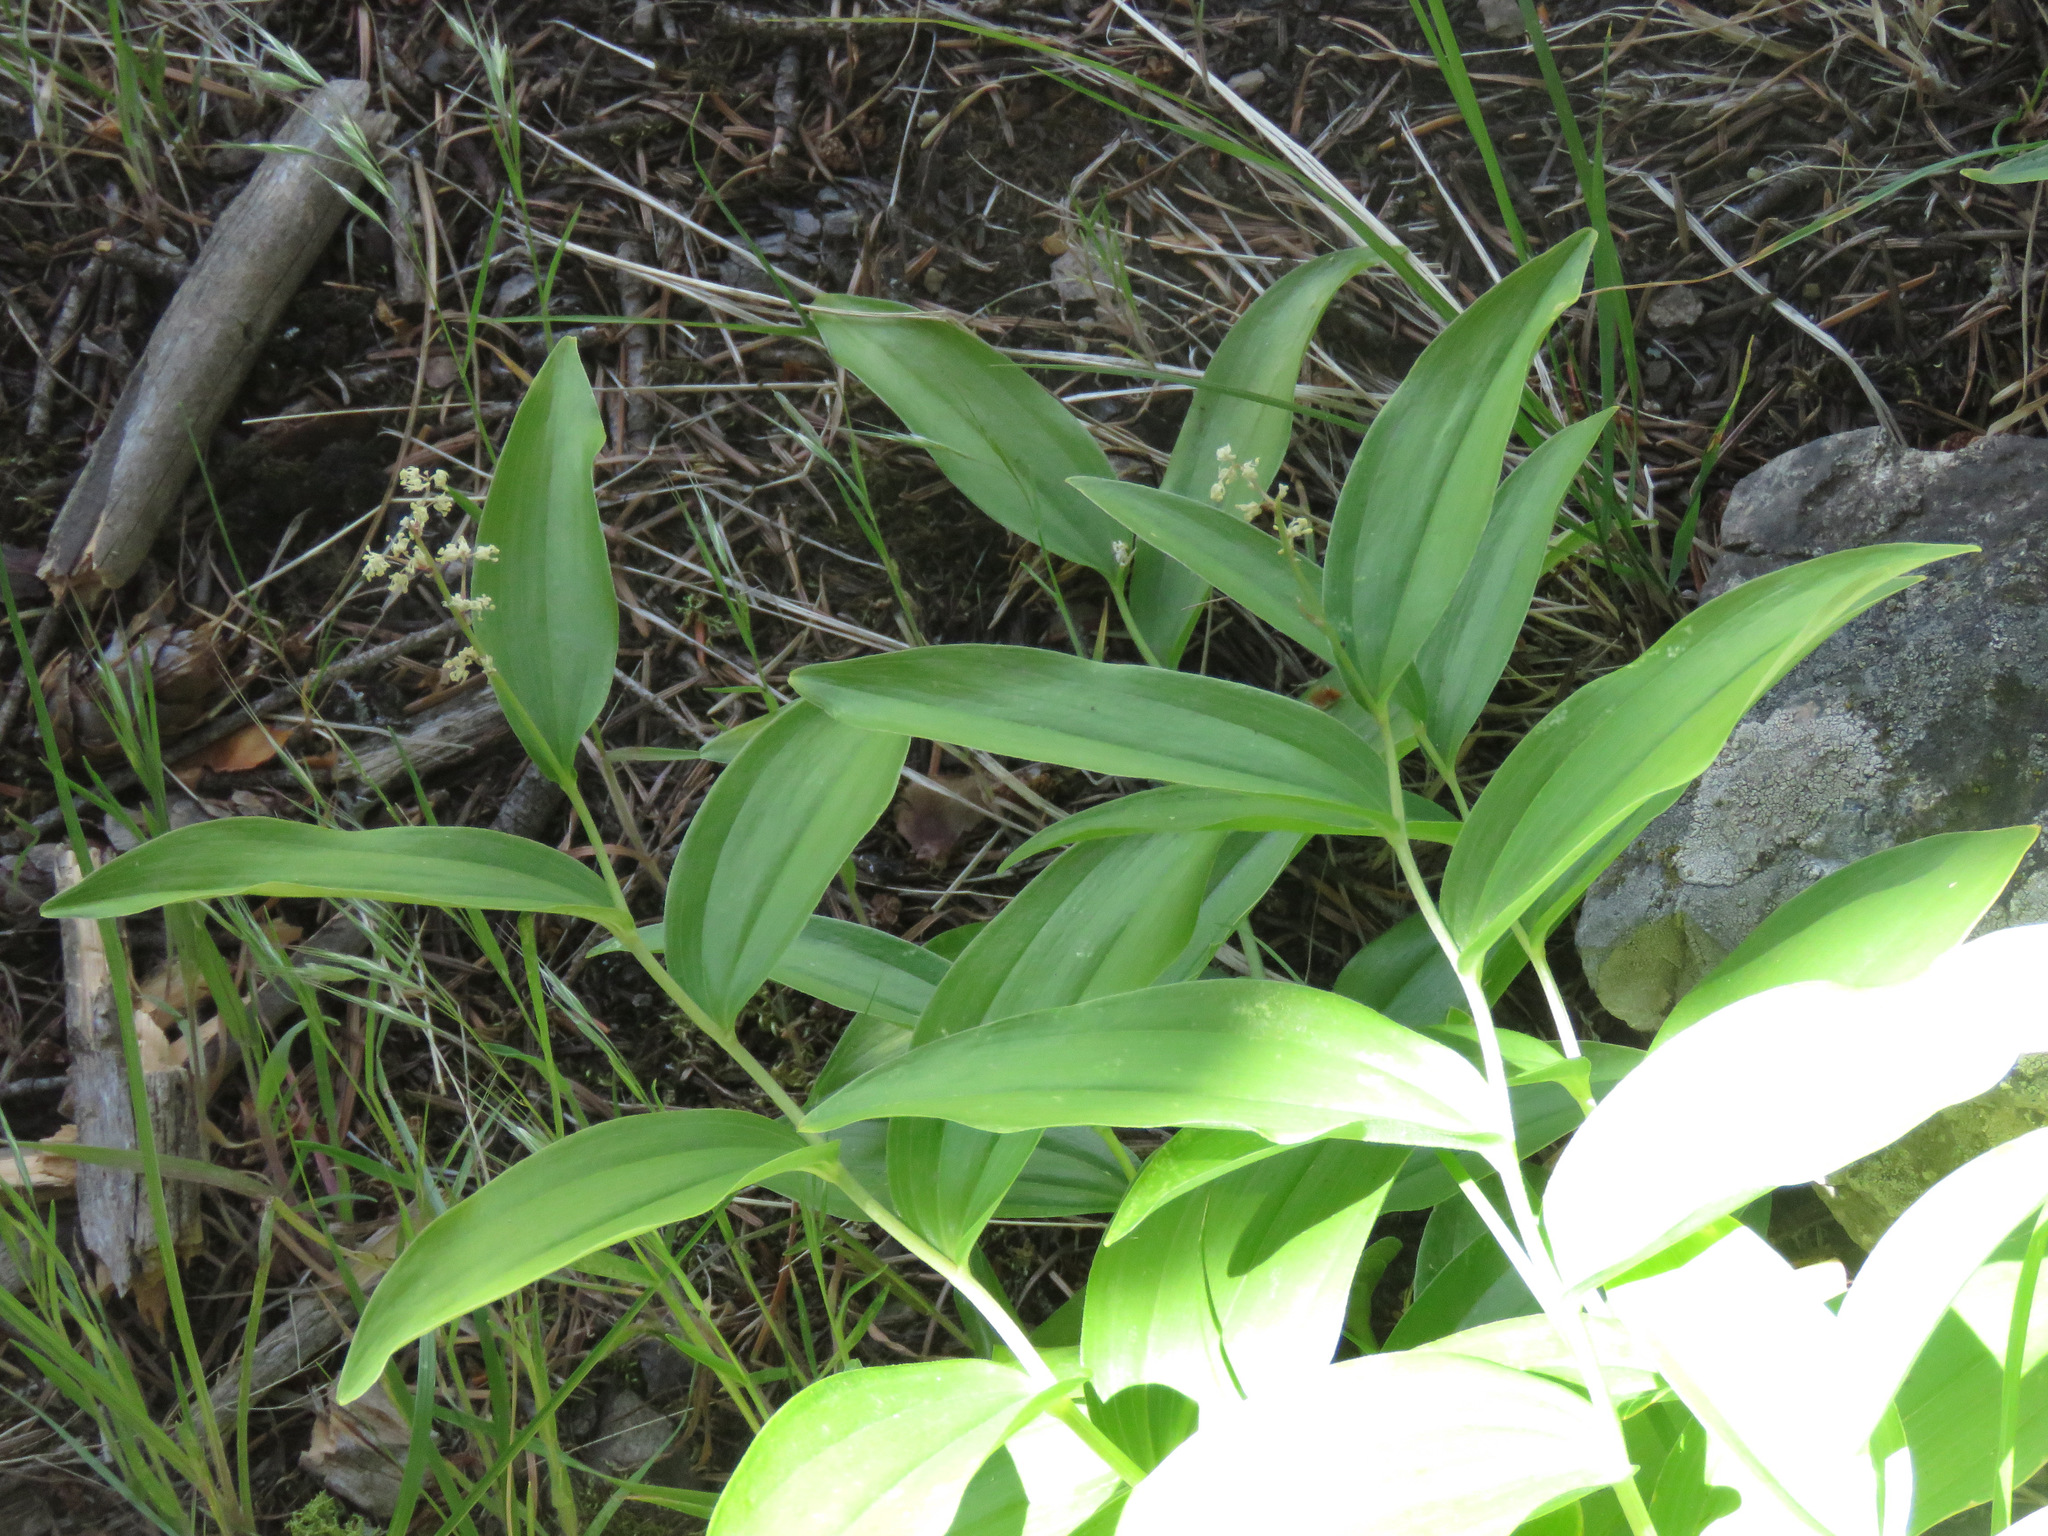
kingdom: Plantae
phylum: Tracheophyta
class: Liliopsida
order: Asparagales
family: Asparagaceae
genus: Maianthemum
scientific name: Maianthemum racemosum
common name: False spikenard
